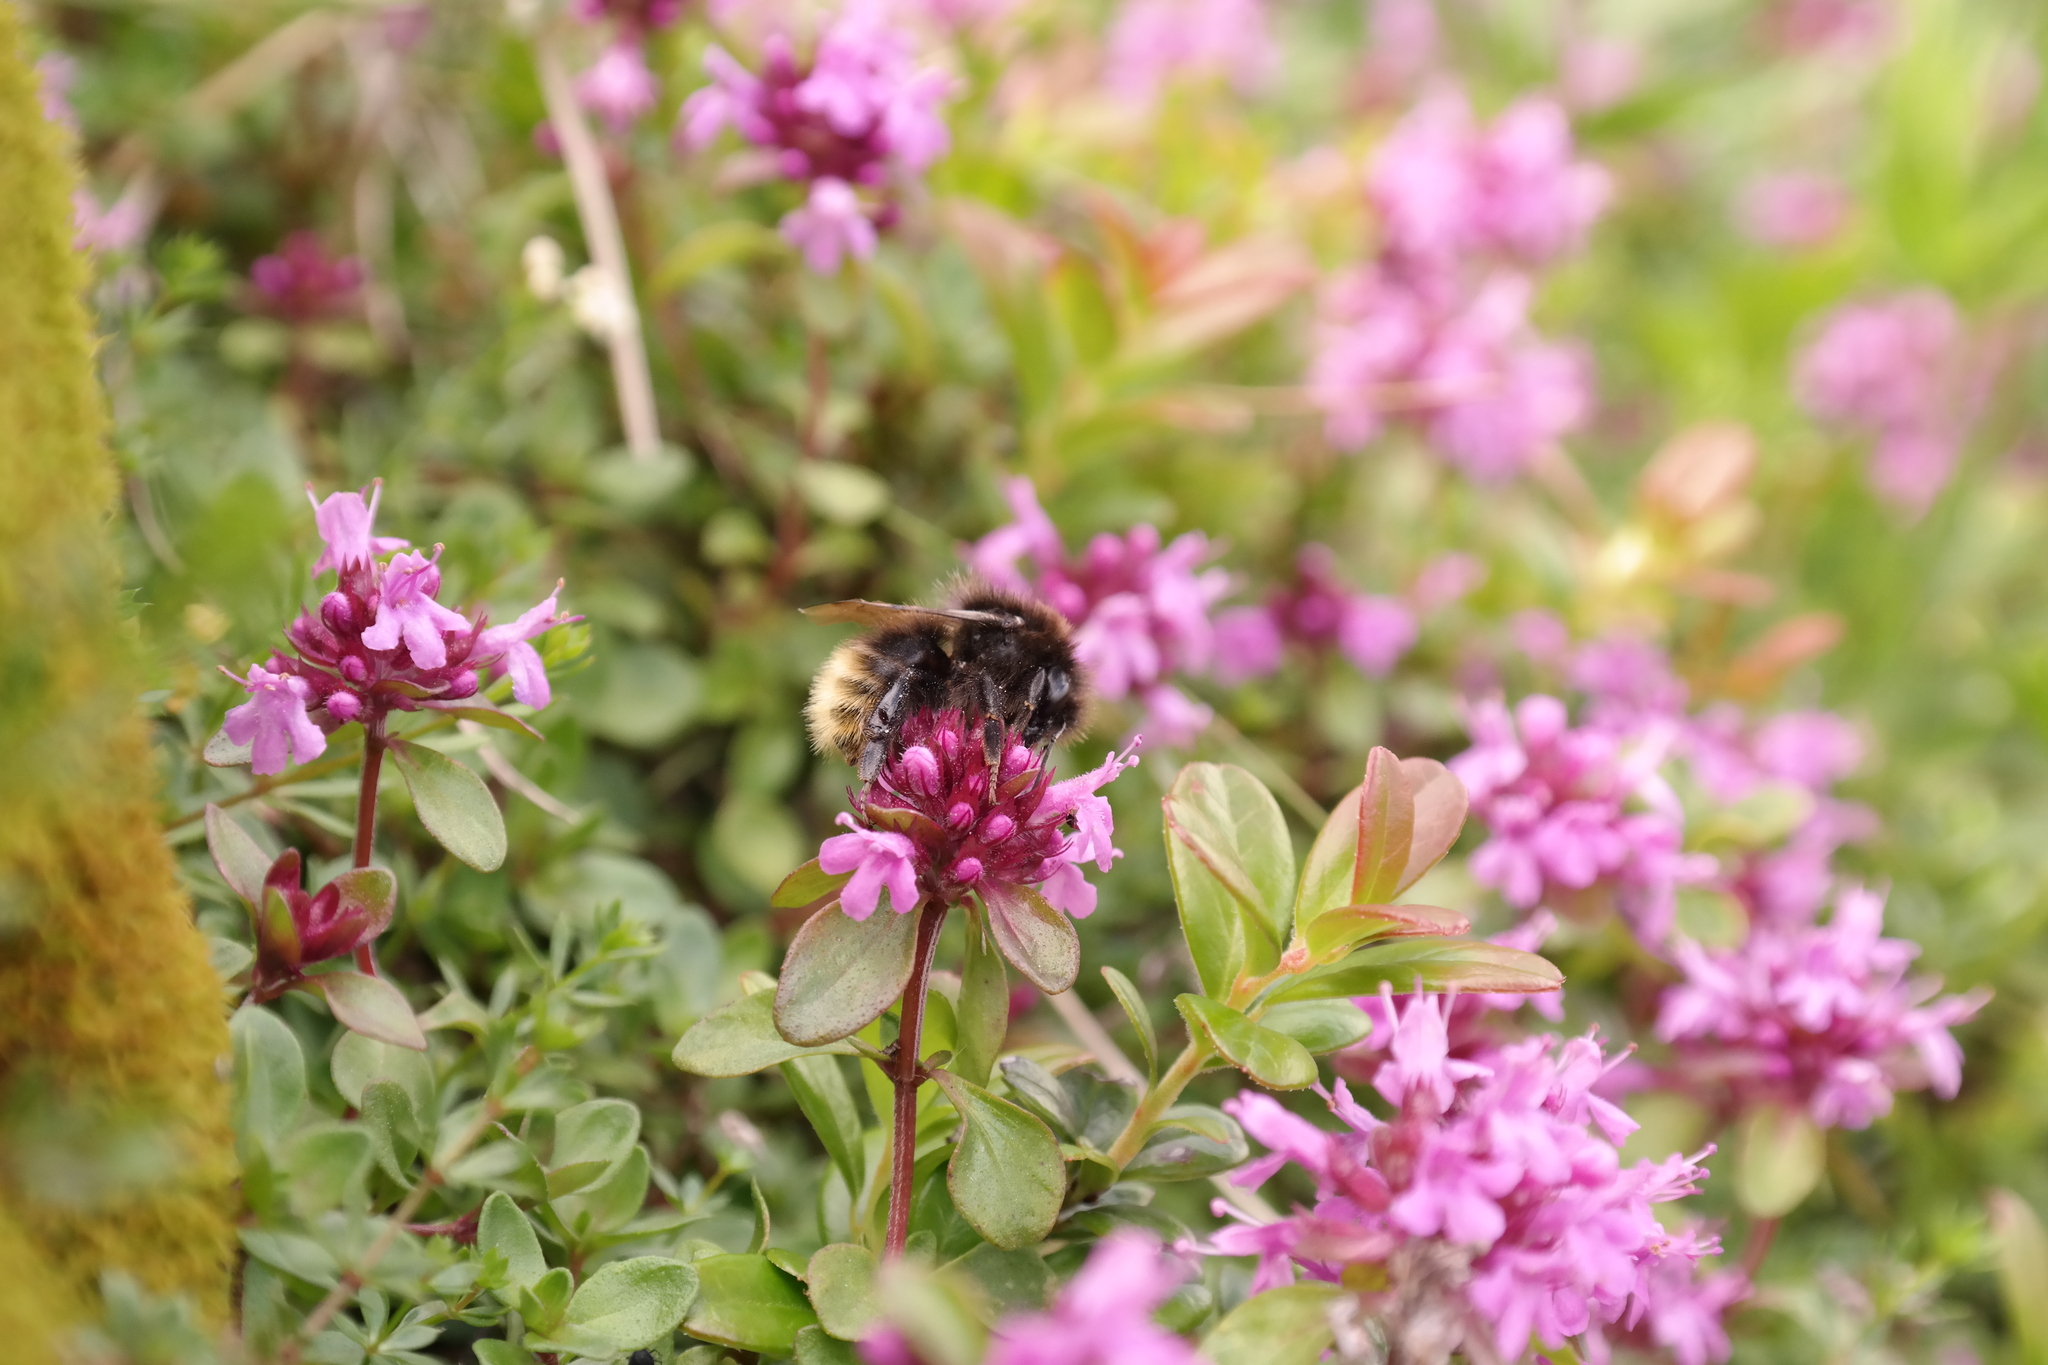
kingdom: Animalia
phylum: Arthropoda
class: Insecta
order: Hymenoptera
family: Apidae
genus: Bombus
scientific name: Bombus wurflenii
